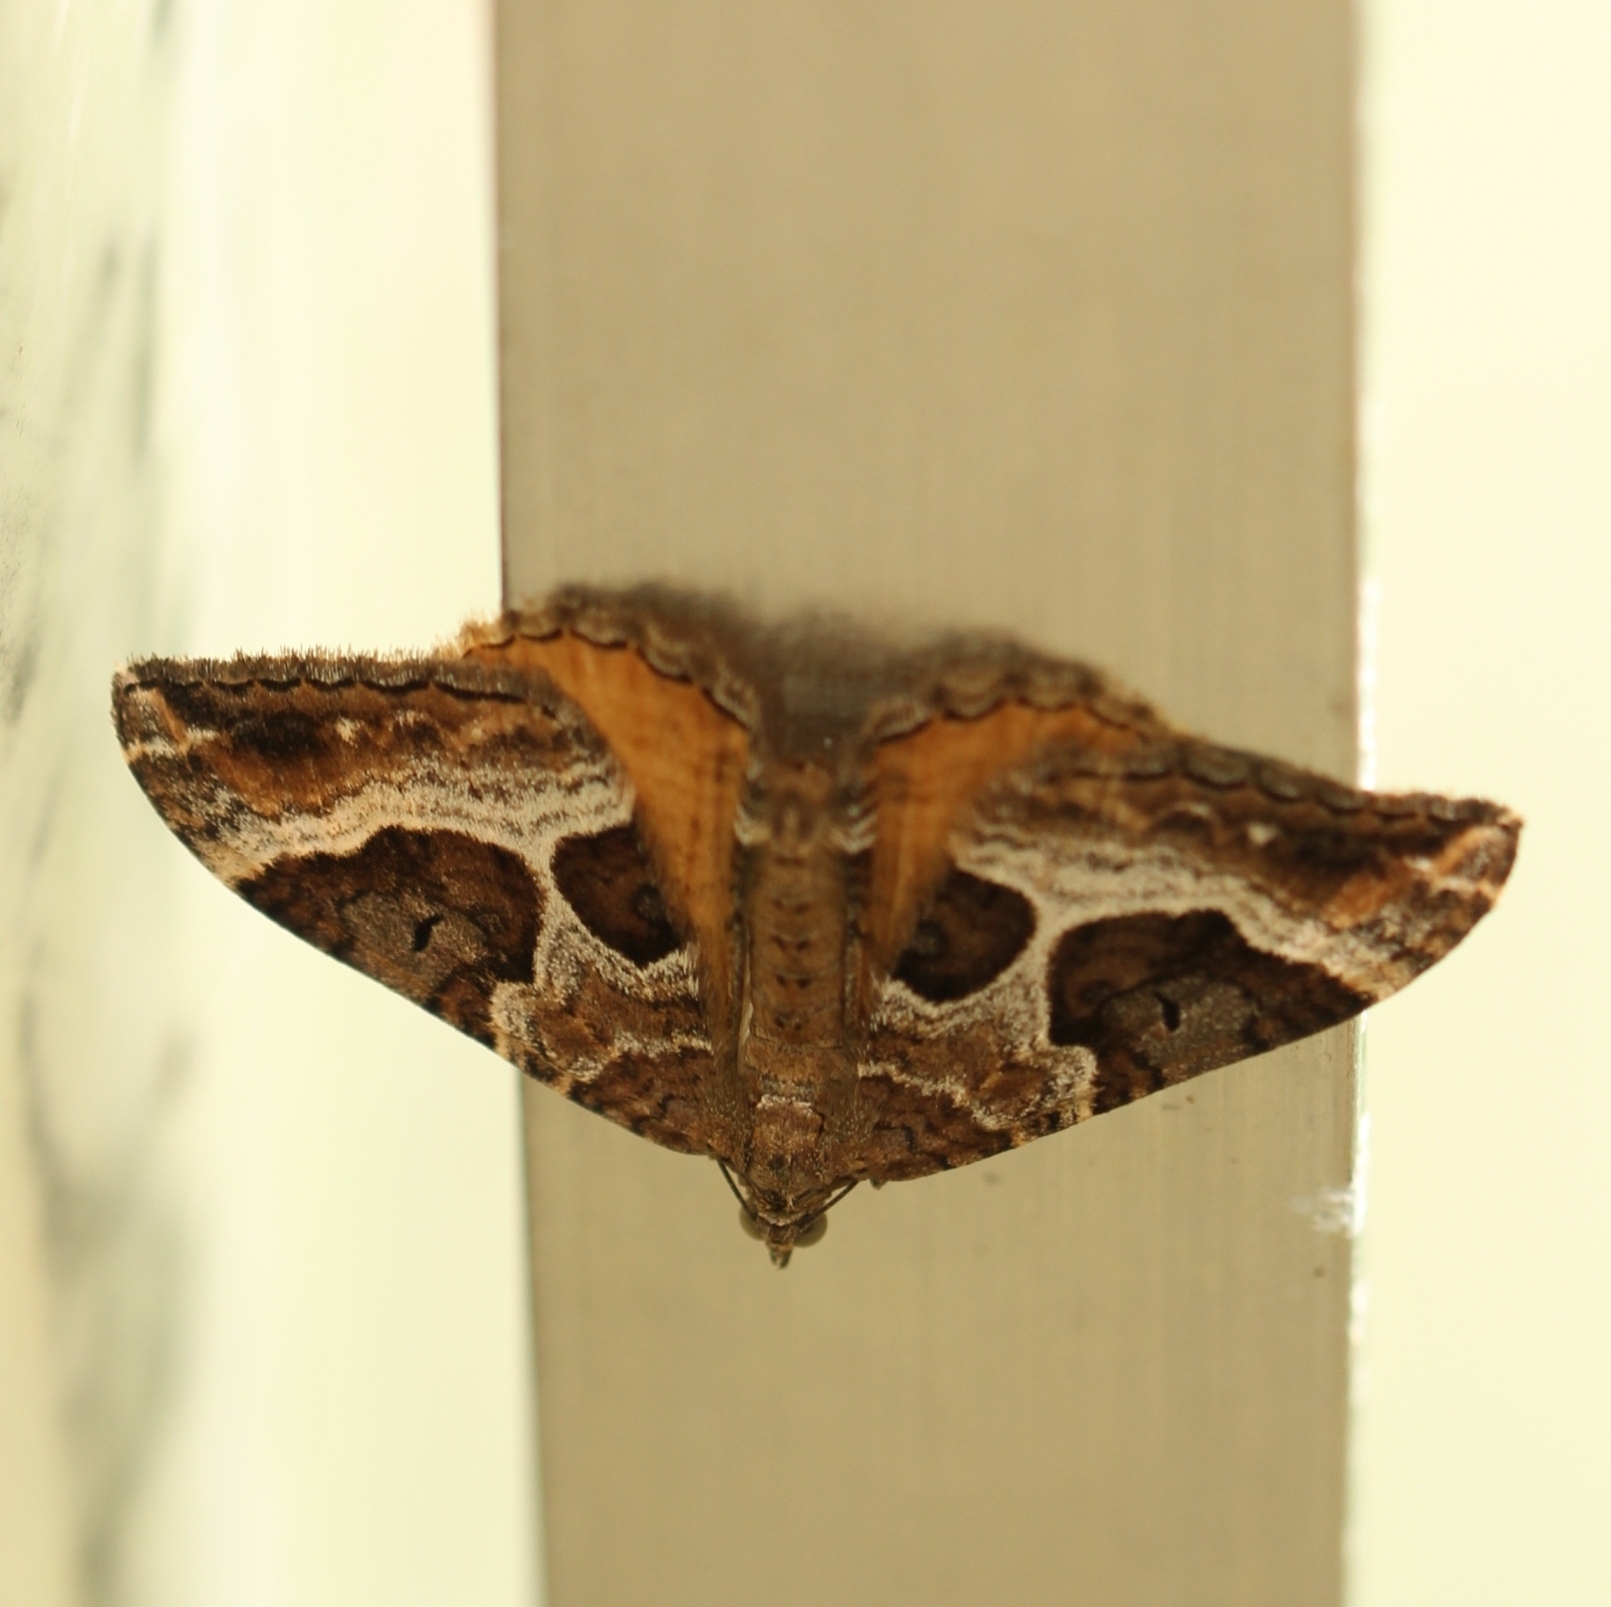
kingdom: Animalia
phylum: Arthropoda
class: Insecta
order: Lepidoptera
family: Geometridae
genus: Hydriomena
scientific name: Hydriomena deltoidata
